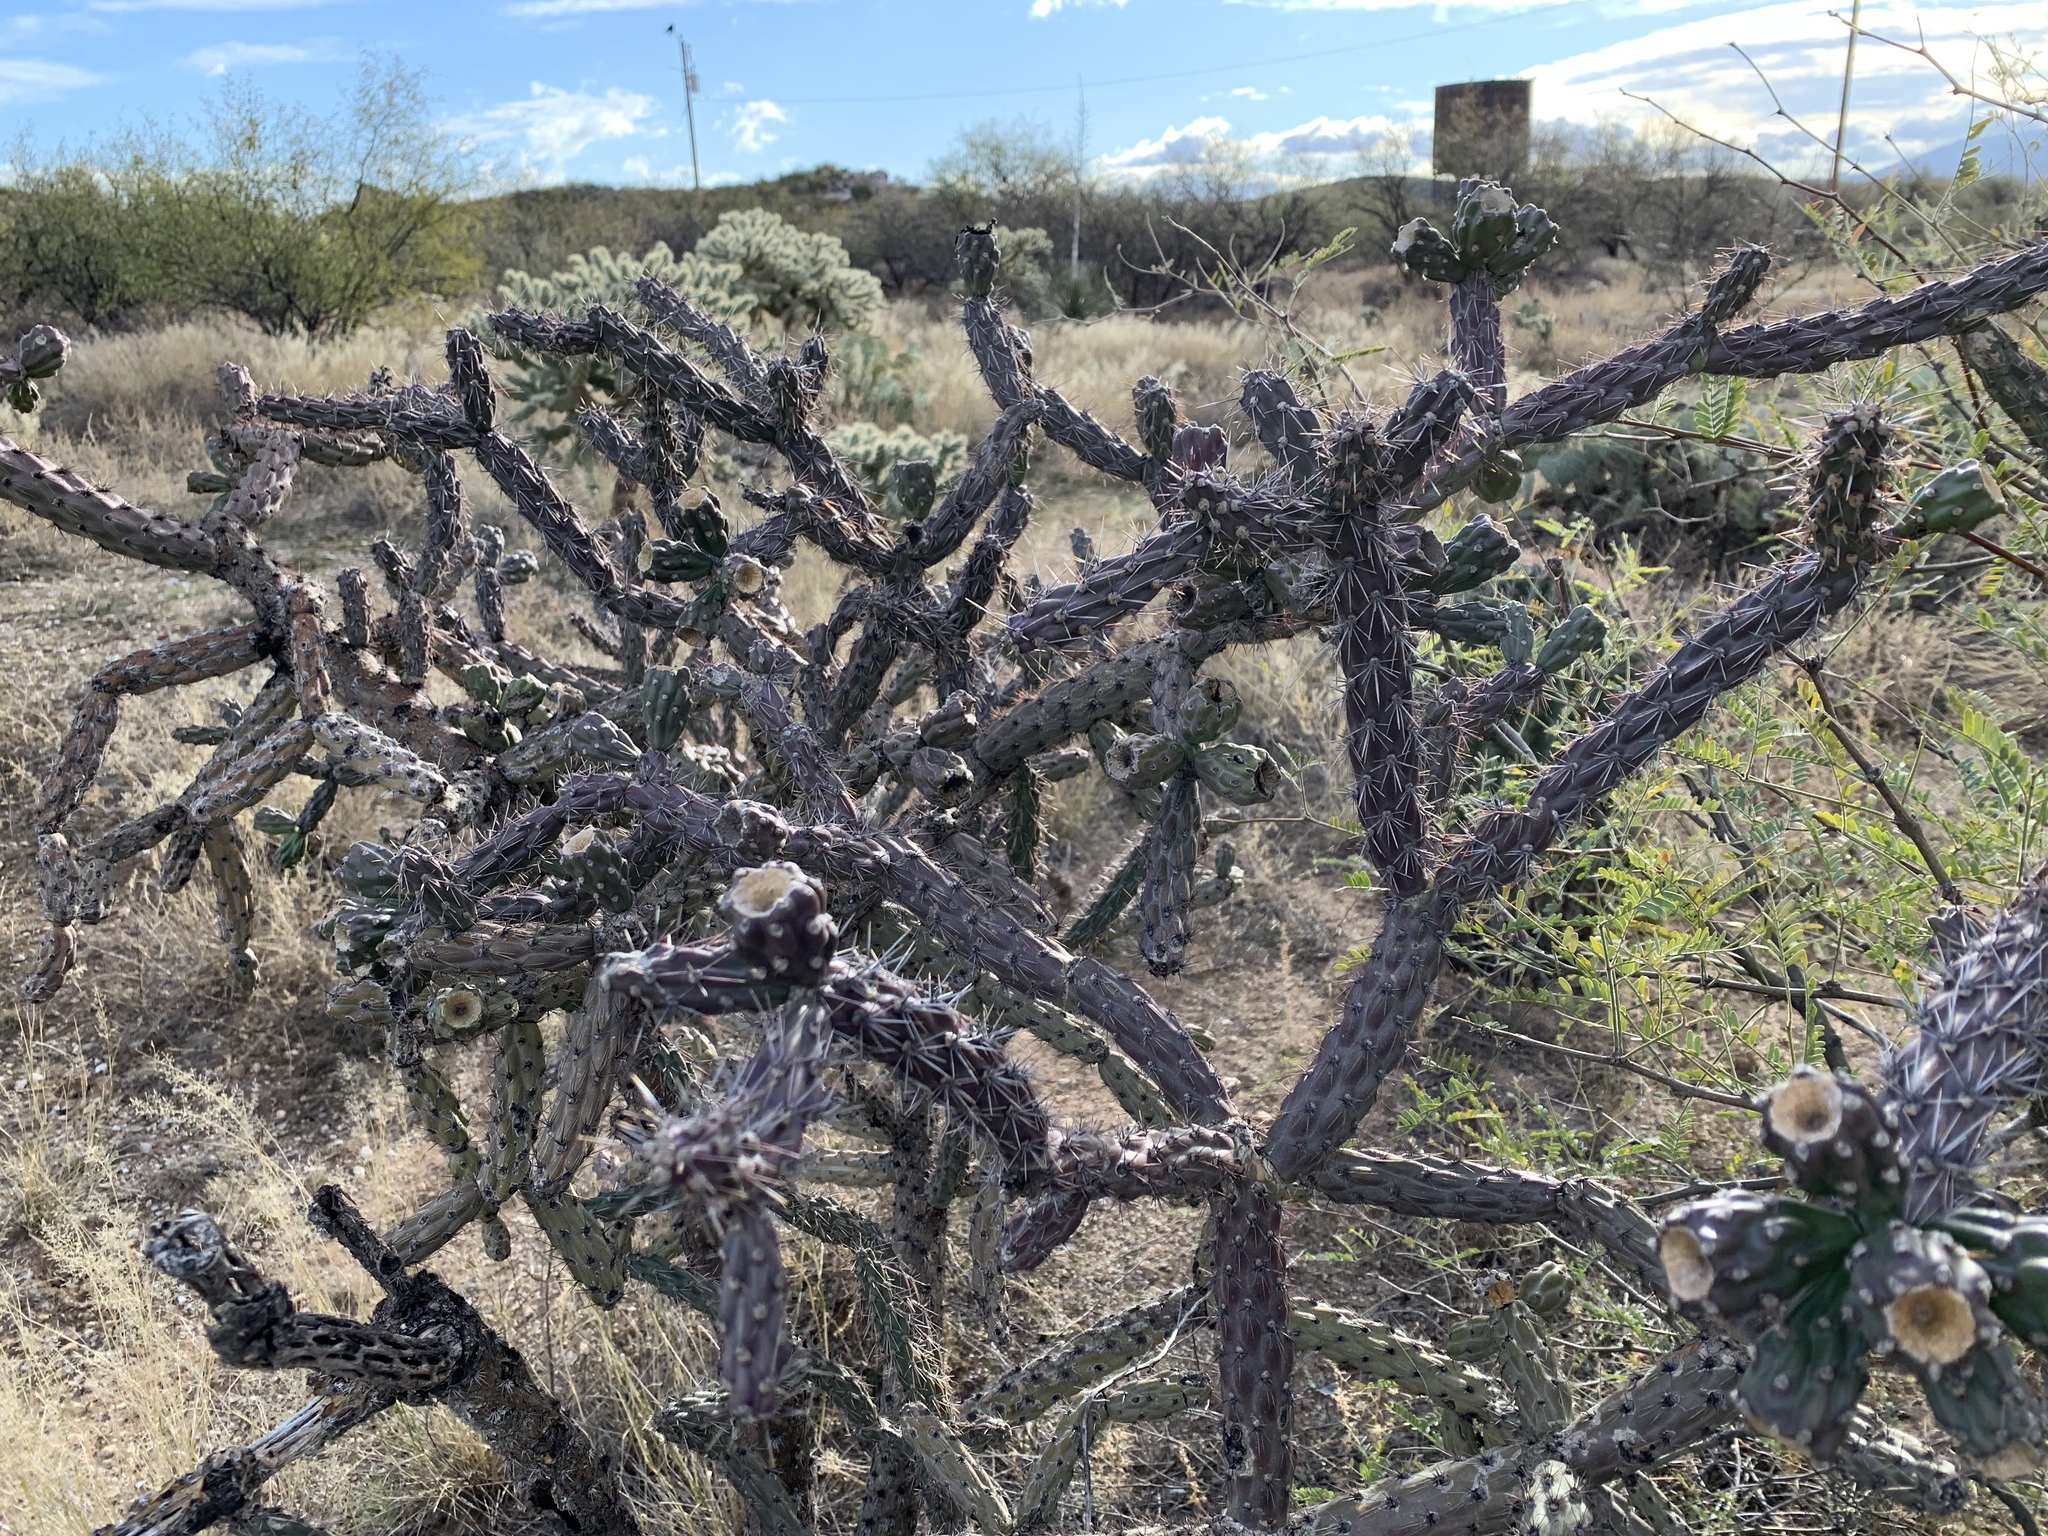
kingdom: Plantae
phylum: Tracheophyta
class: Magnoliopsida
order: Caryophyllales
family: Cactaceae
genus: Cylindropuntia
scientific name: Cylindropuntia thurberi
